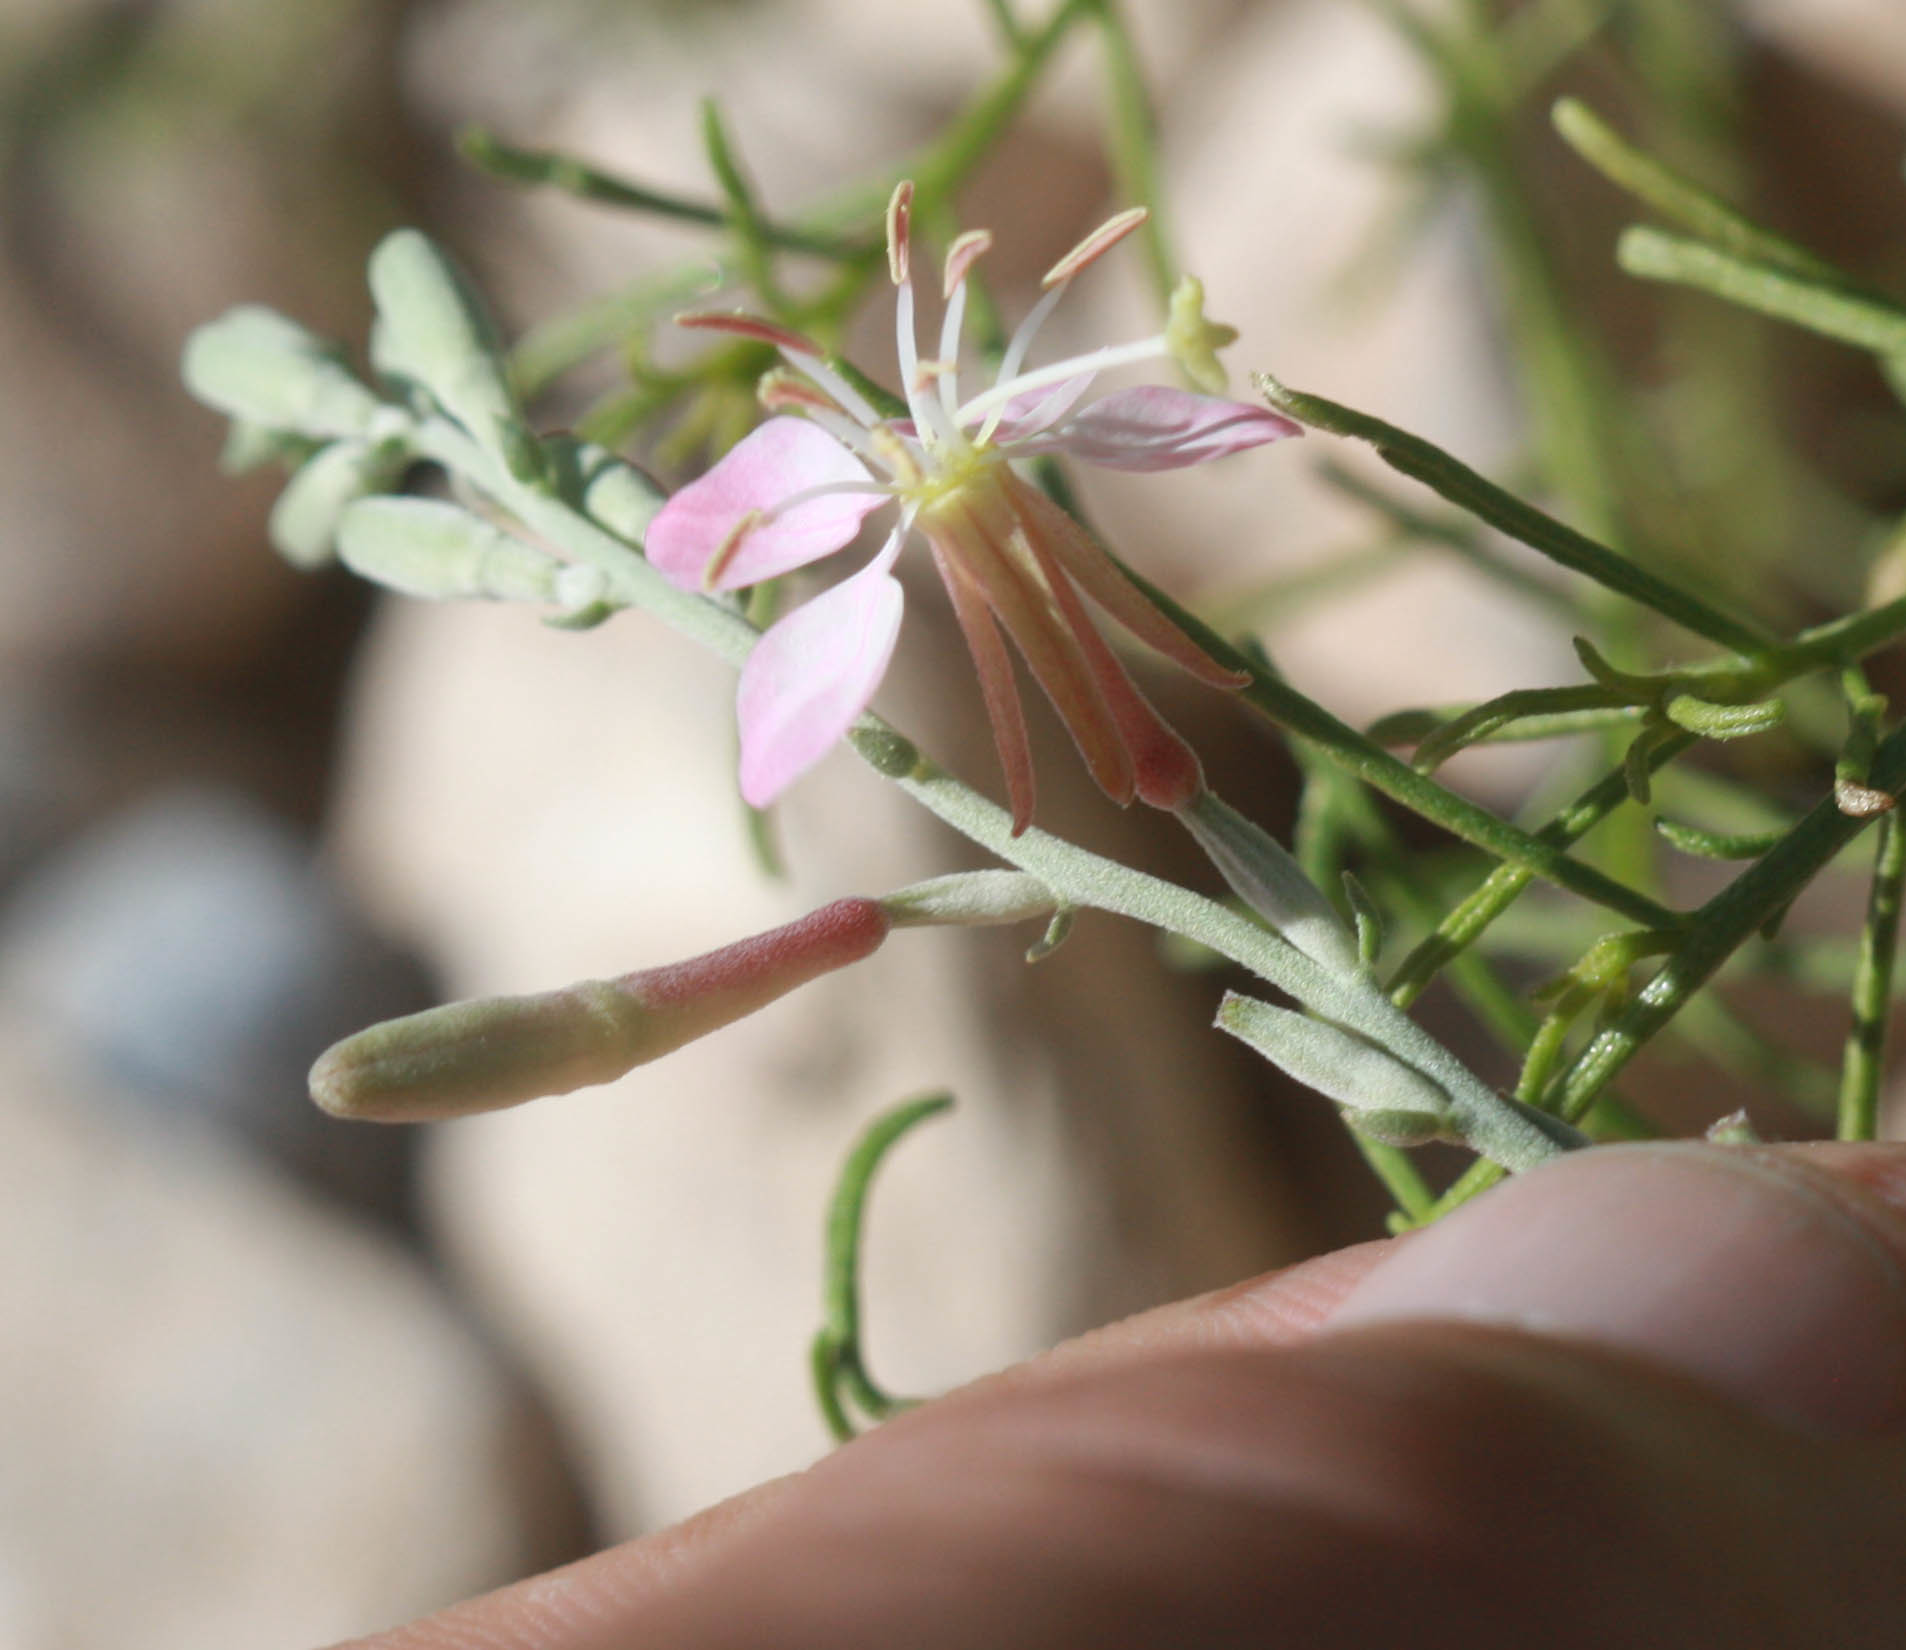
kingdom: Plantae
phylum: Tracheophyta
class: Magnoliopsida
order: Myrtales
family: Onagraceae
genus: Oenothera
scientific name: Oenothera suffrutescens
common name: Scarlet beeblossom
